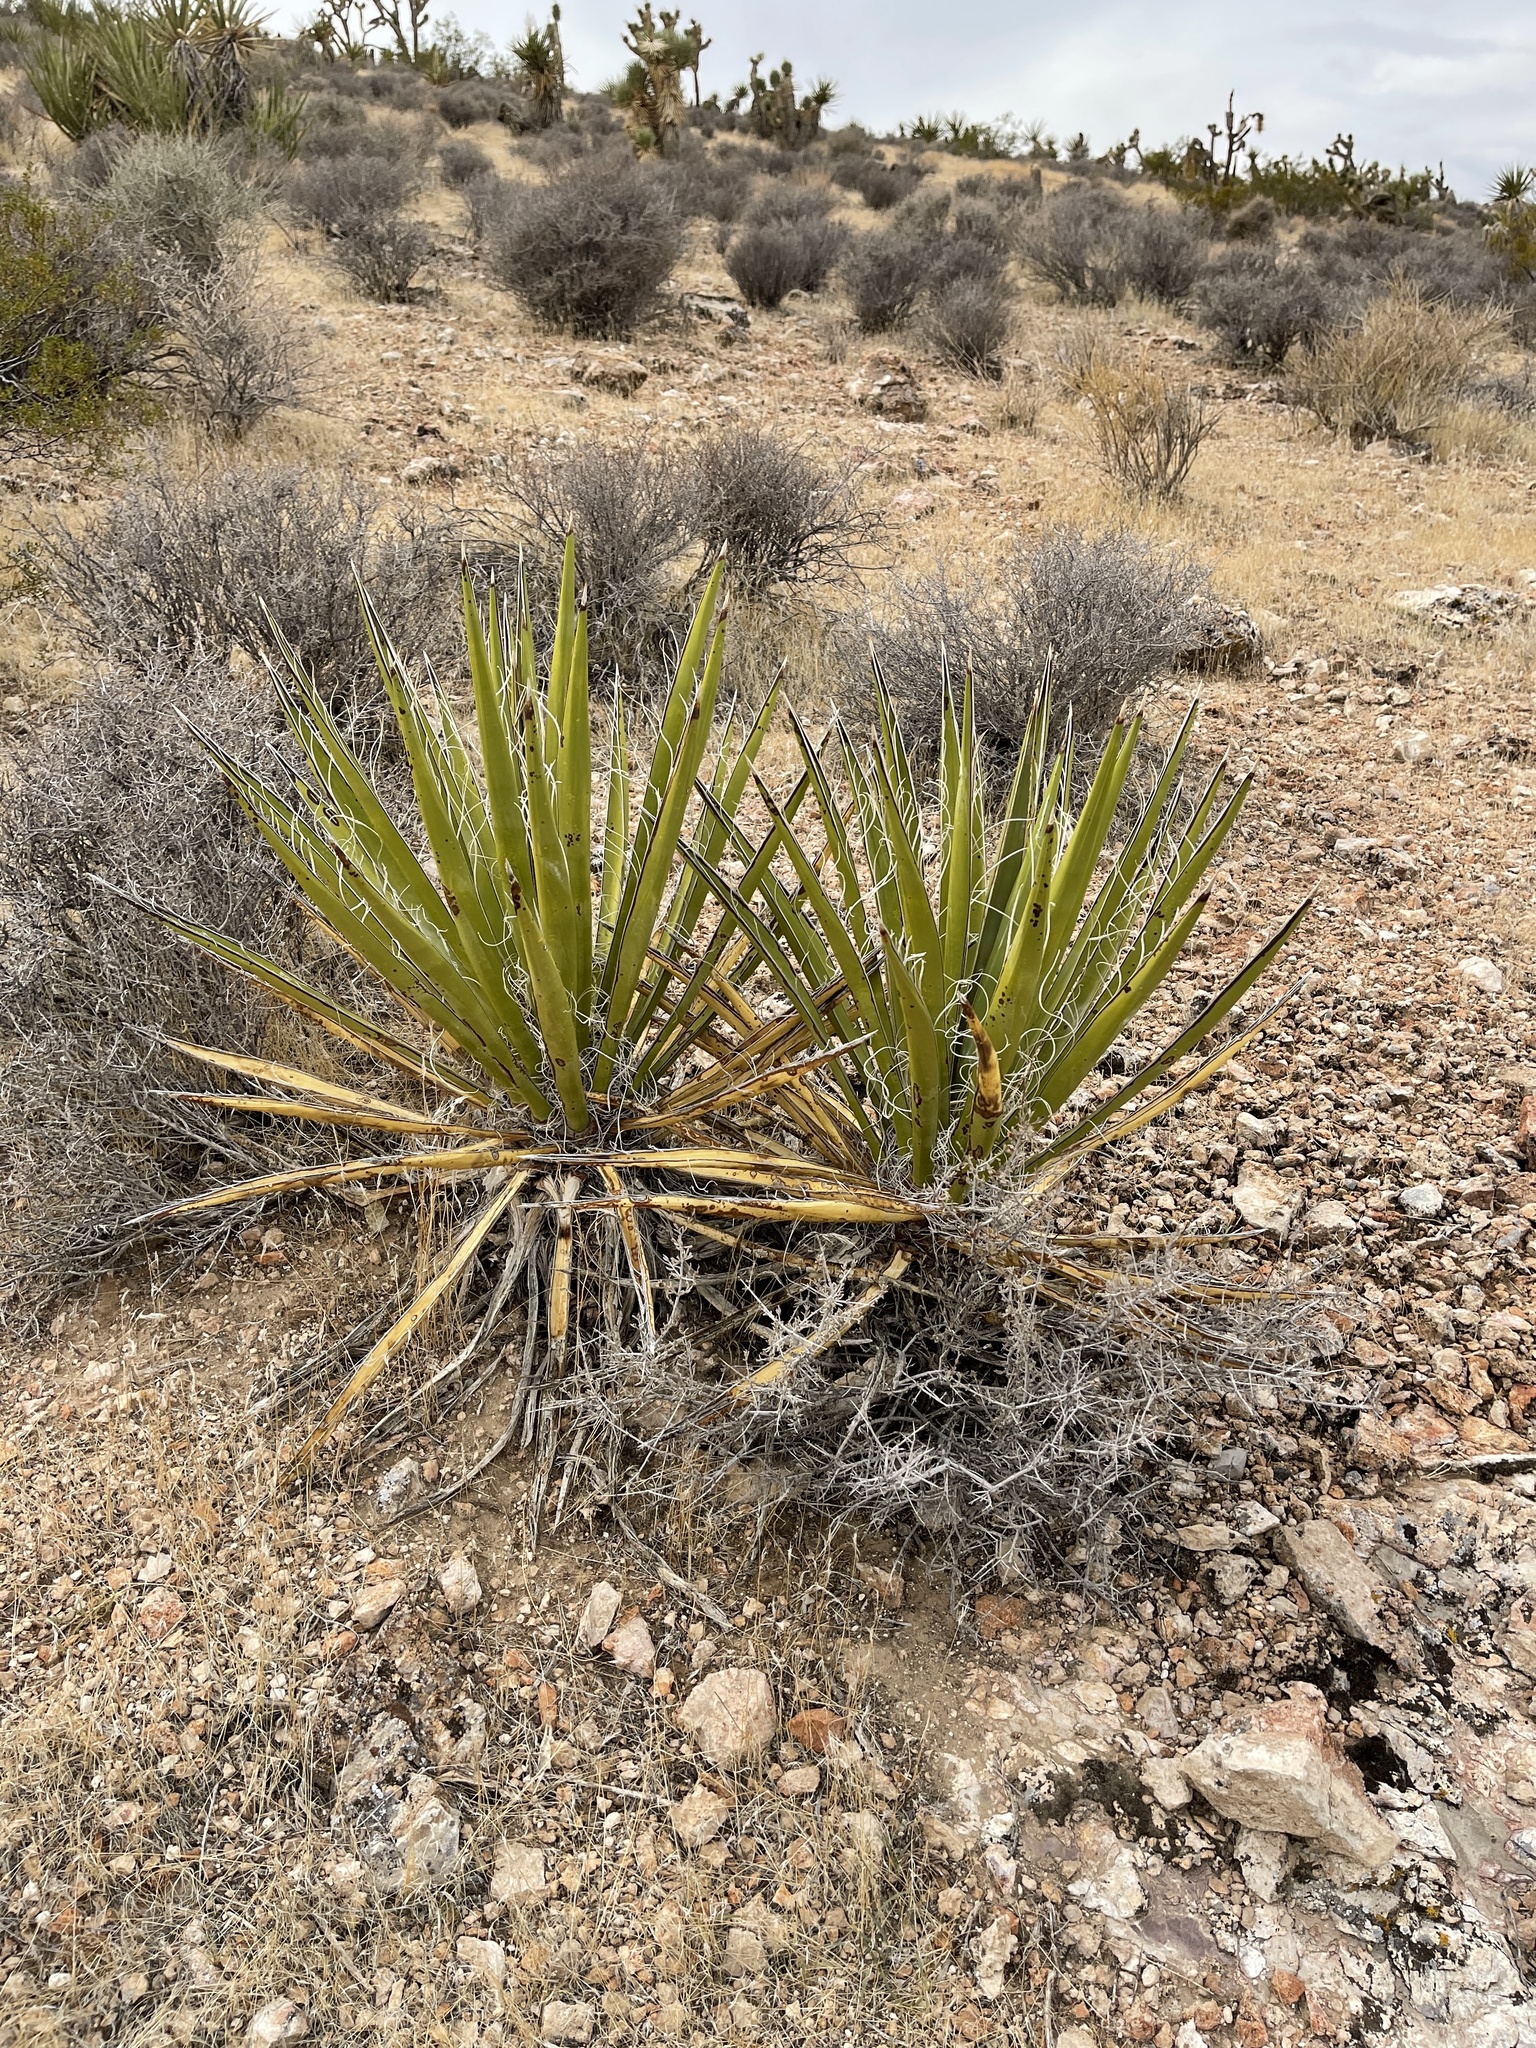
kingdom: Plantae
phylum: Tracheophyta
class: Liliopsida
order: Asparagales
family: Asparagaceae
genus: Yucca
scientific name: Yucca schidigera
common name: Mojave yucca
